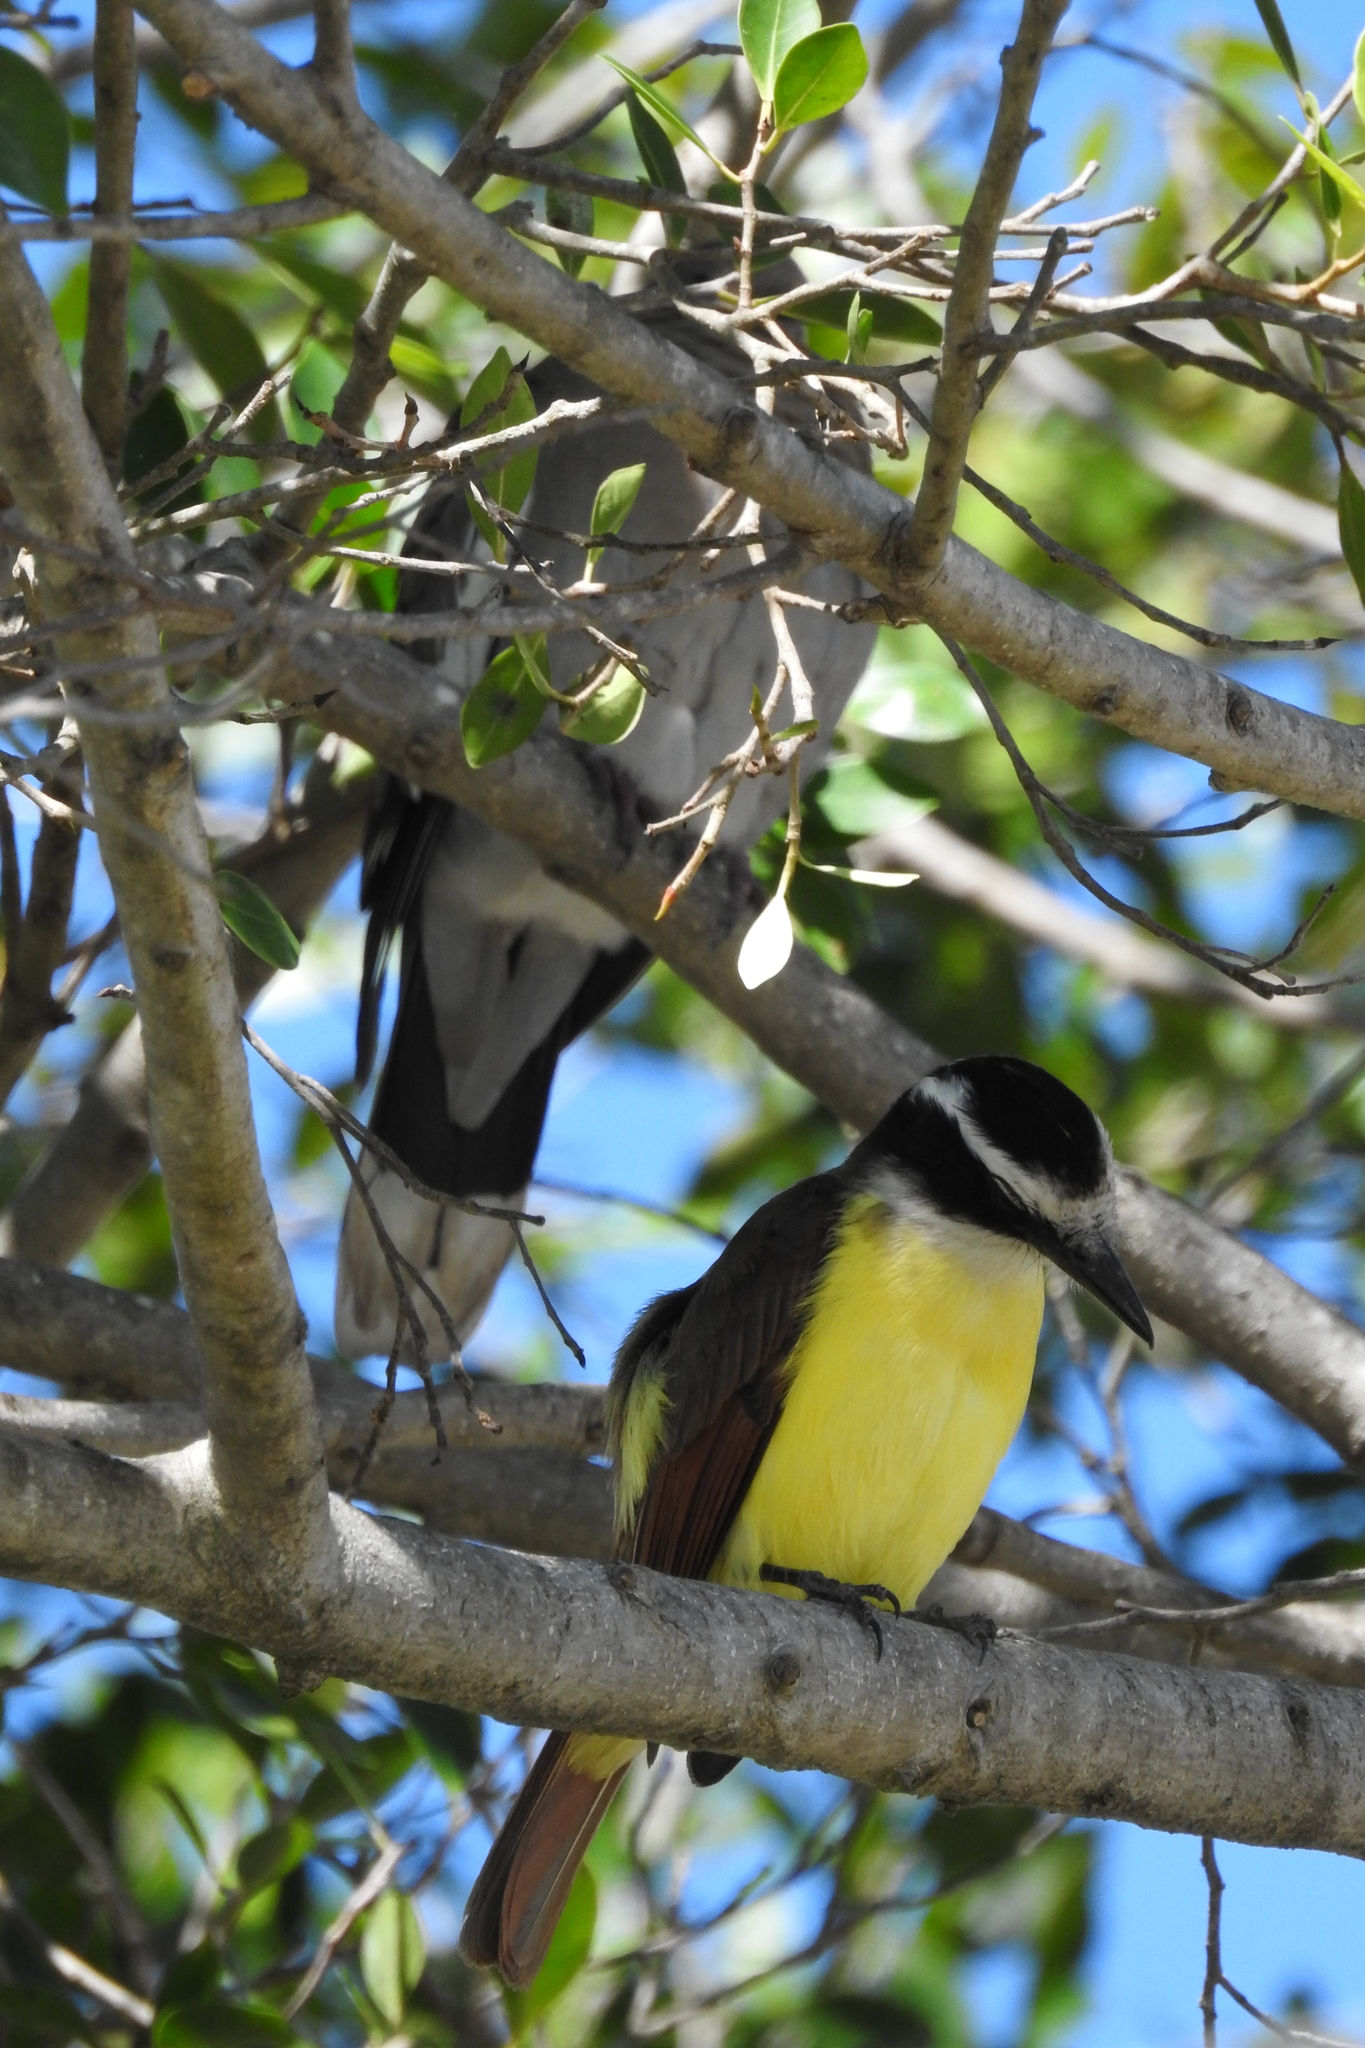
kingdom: Animalia
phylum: Chordata
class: Aves
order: Passeriformes
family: Tyrannidae
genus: Pitangus
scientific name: Pitangus sulphuratus
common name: Great kiskadee
